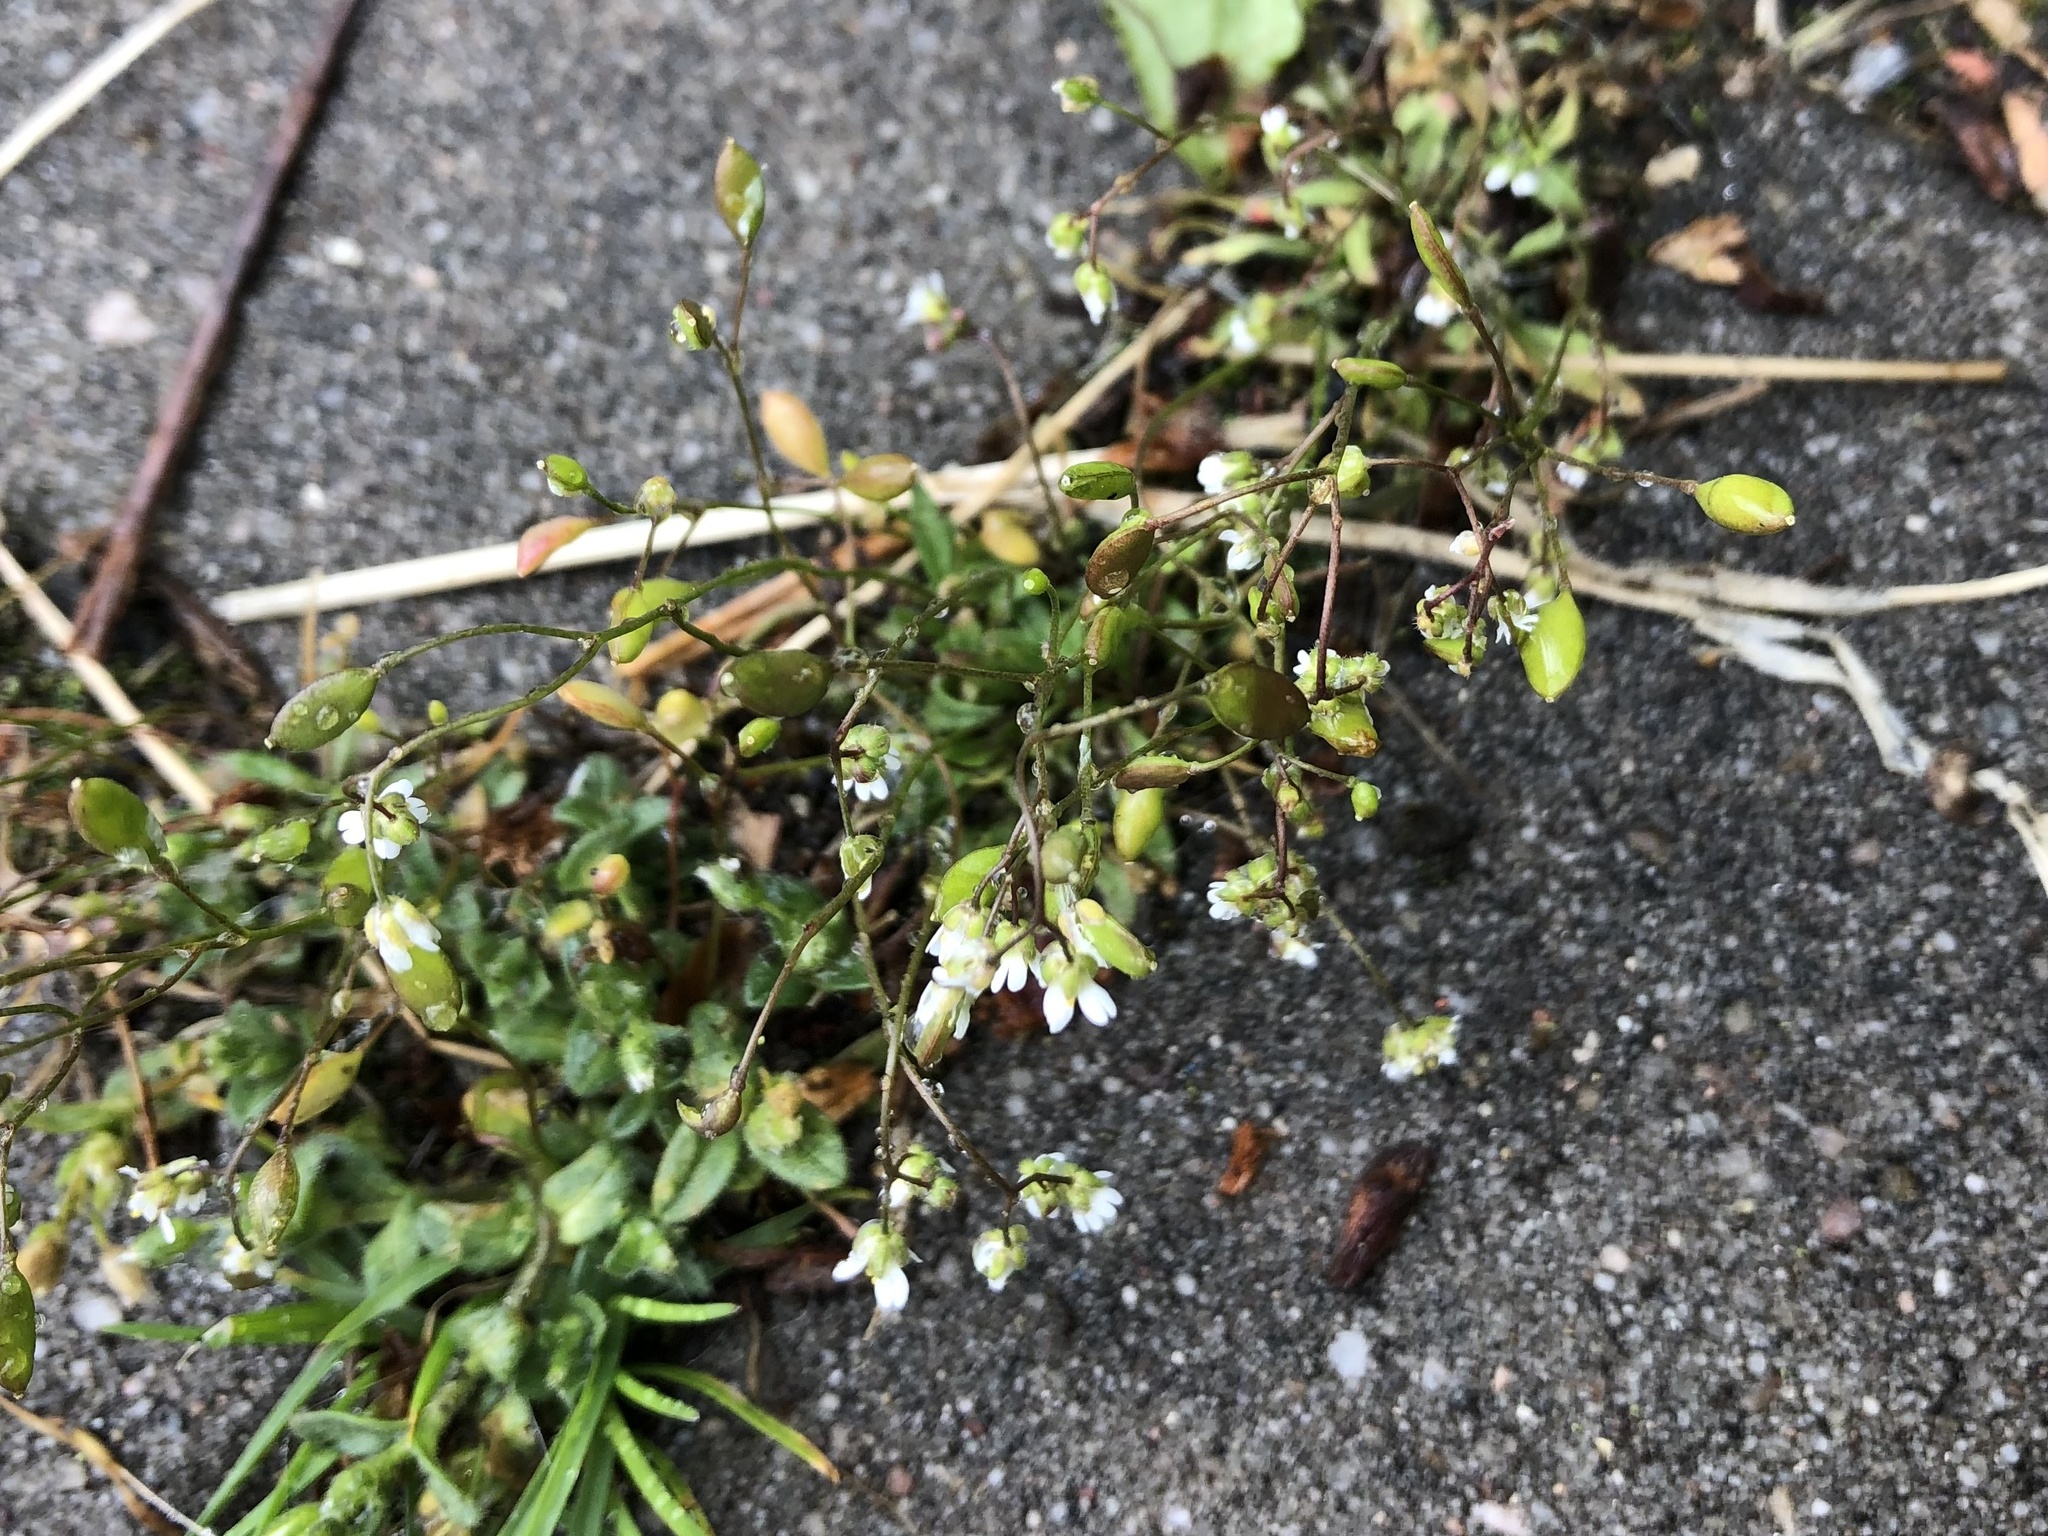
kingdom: Plantae
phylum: Tracheophyta
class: Magnoliopsida
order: Brassicales
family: Brassicaceae
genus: Draba
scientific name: Draba verna
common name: Spring draba
